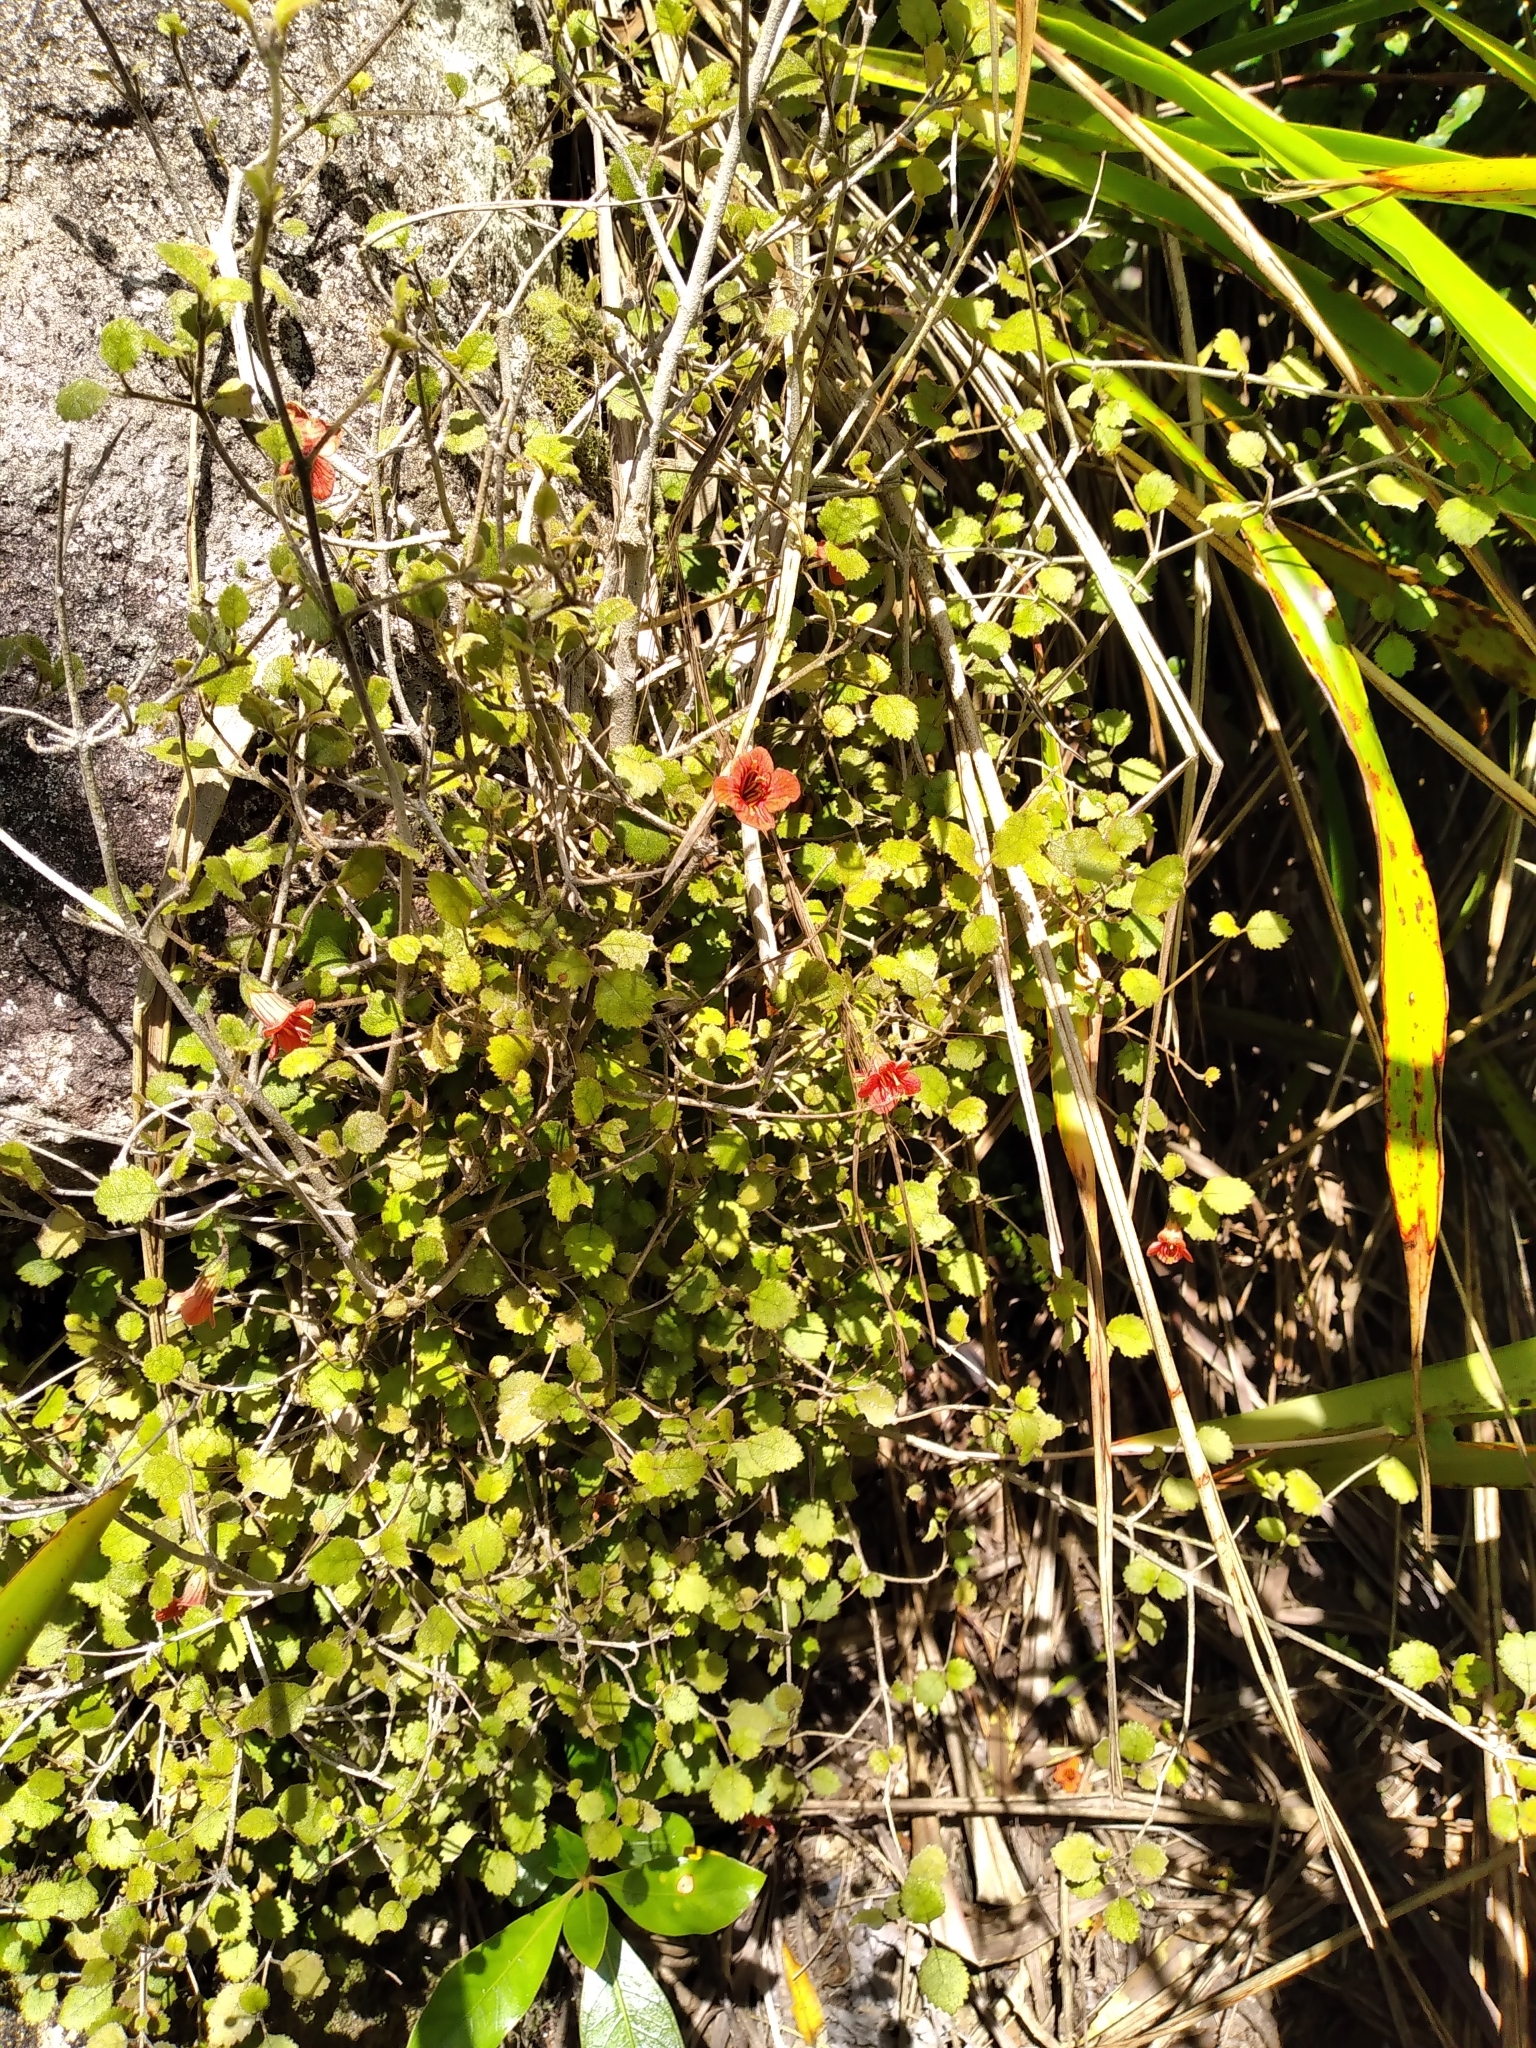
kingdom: Plantae
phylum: Tracheophyta
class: Magnoliopsida
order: Lamiales
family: Gesneriaceae
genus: Rhabdothamnus
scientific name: Rhabdothamnus solandri
